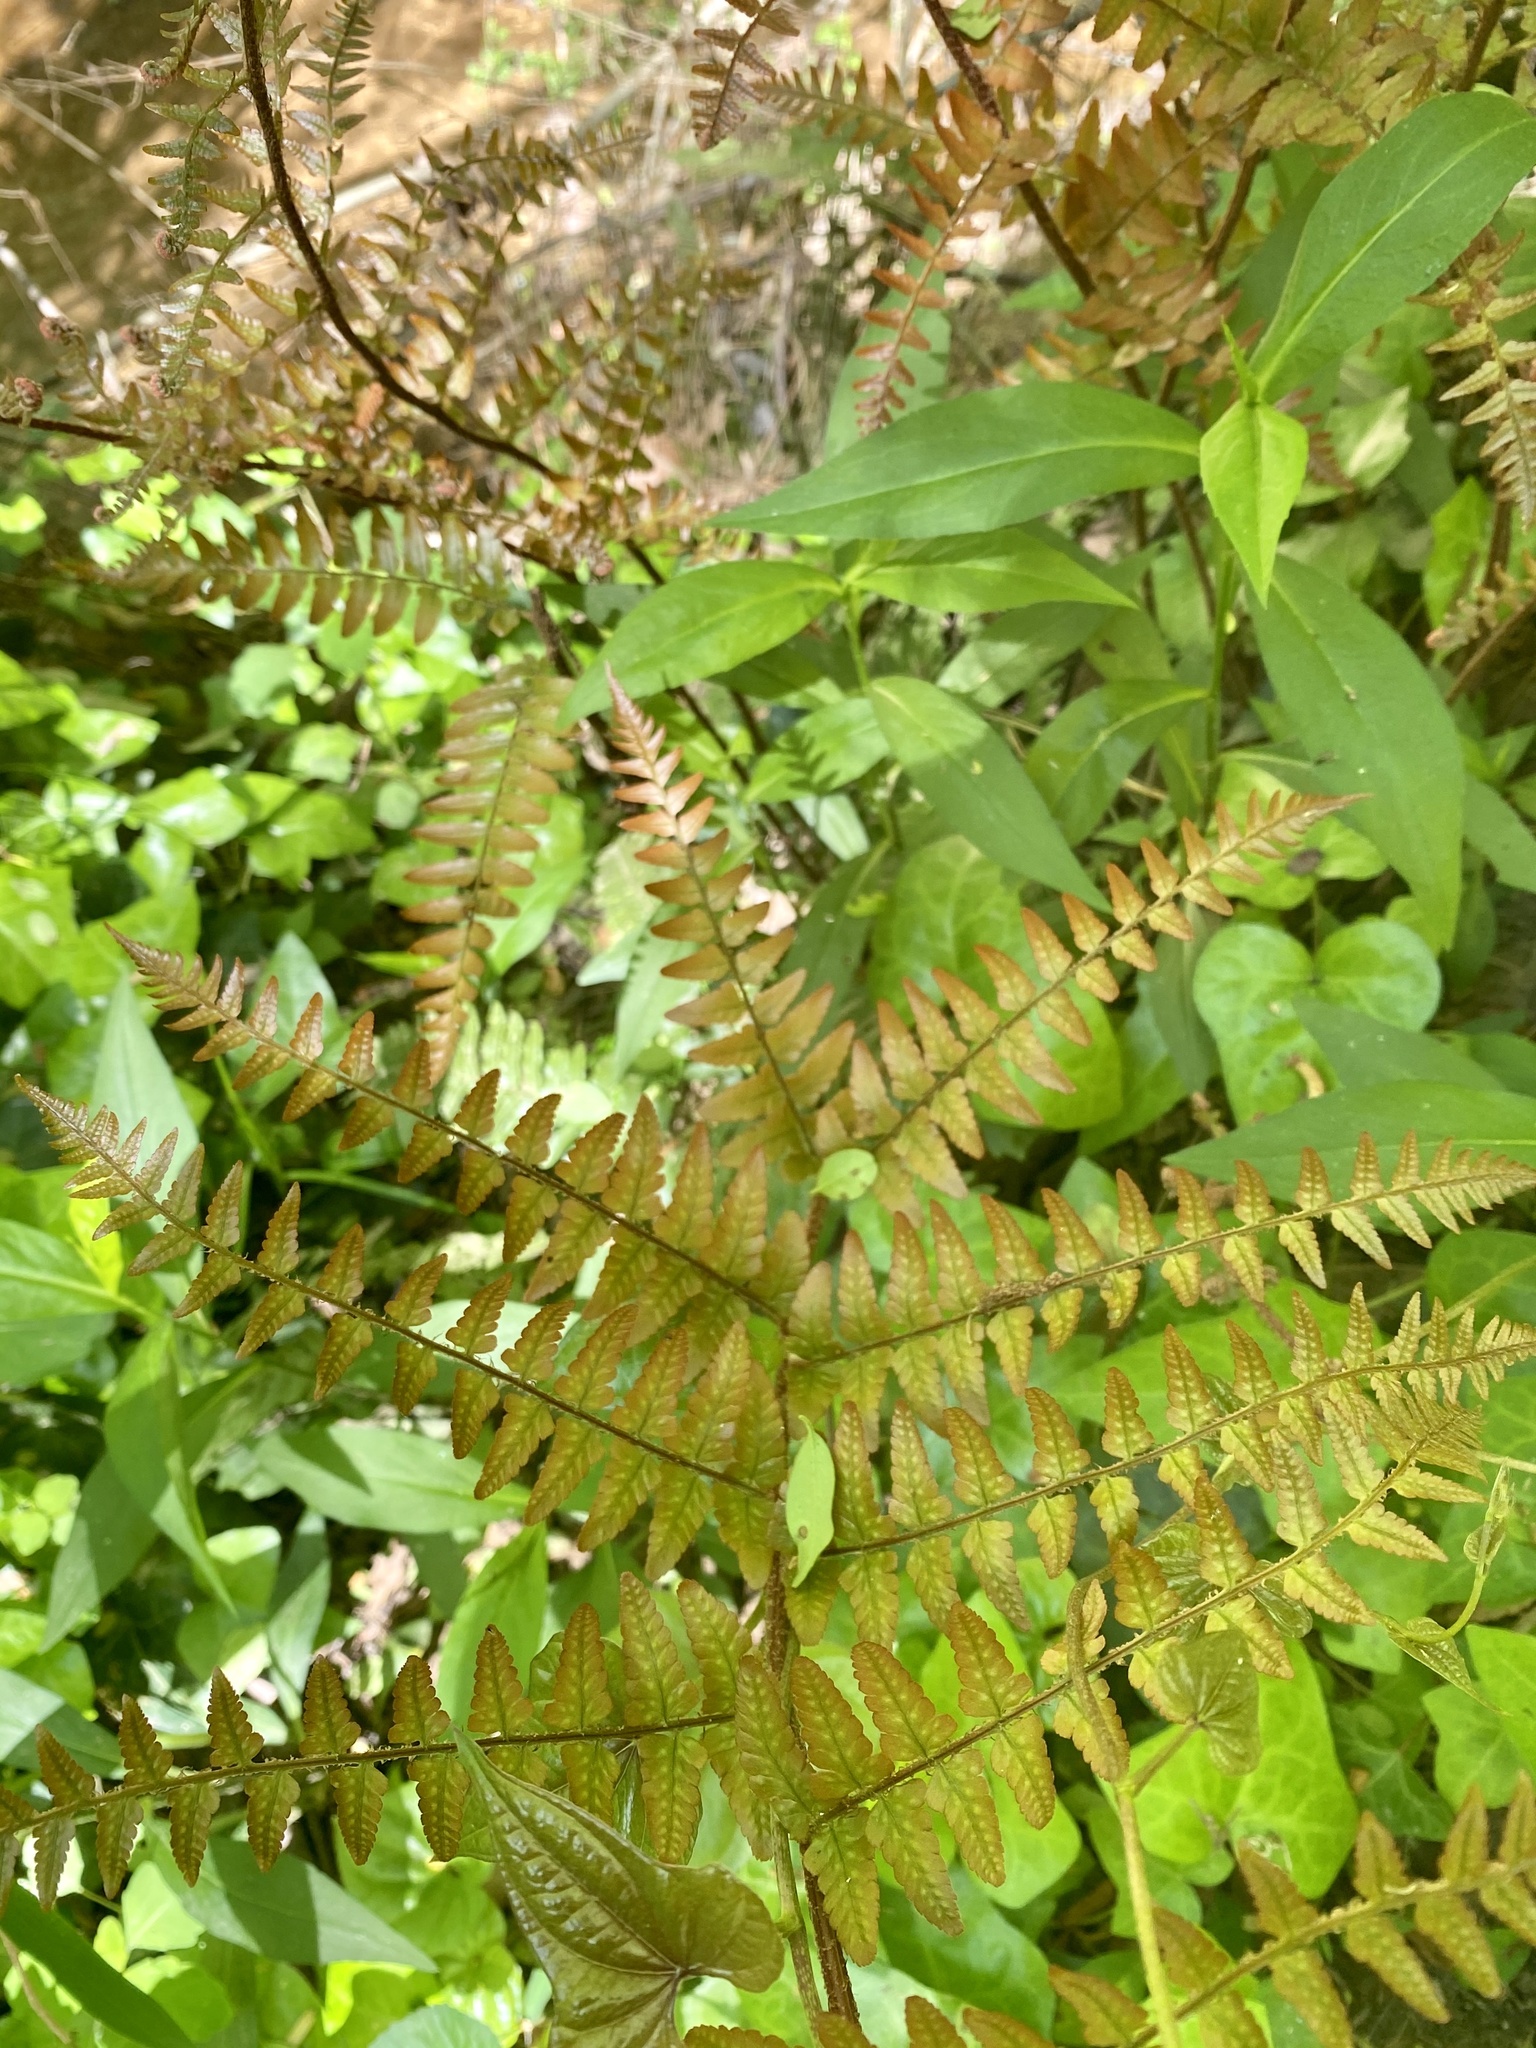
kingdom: Plantae
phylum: Tracheophyta
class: Polypodiopsida
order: Polypodiales
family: Dryopteridaceae
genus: Dryopteris
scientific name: Dryopteris erythrosora
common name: Autumn fern
